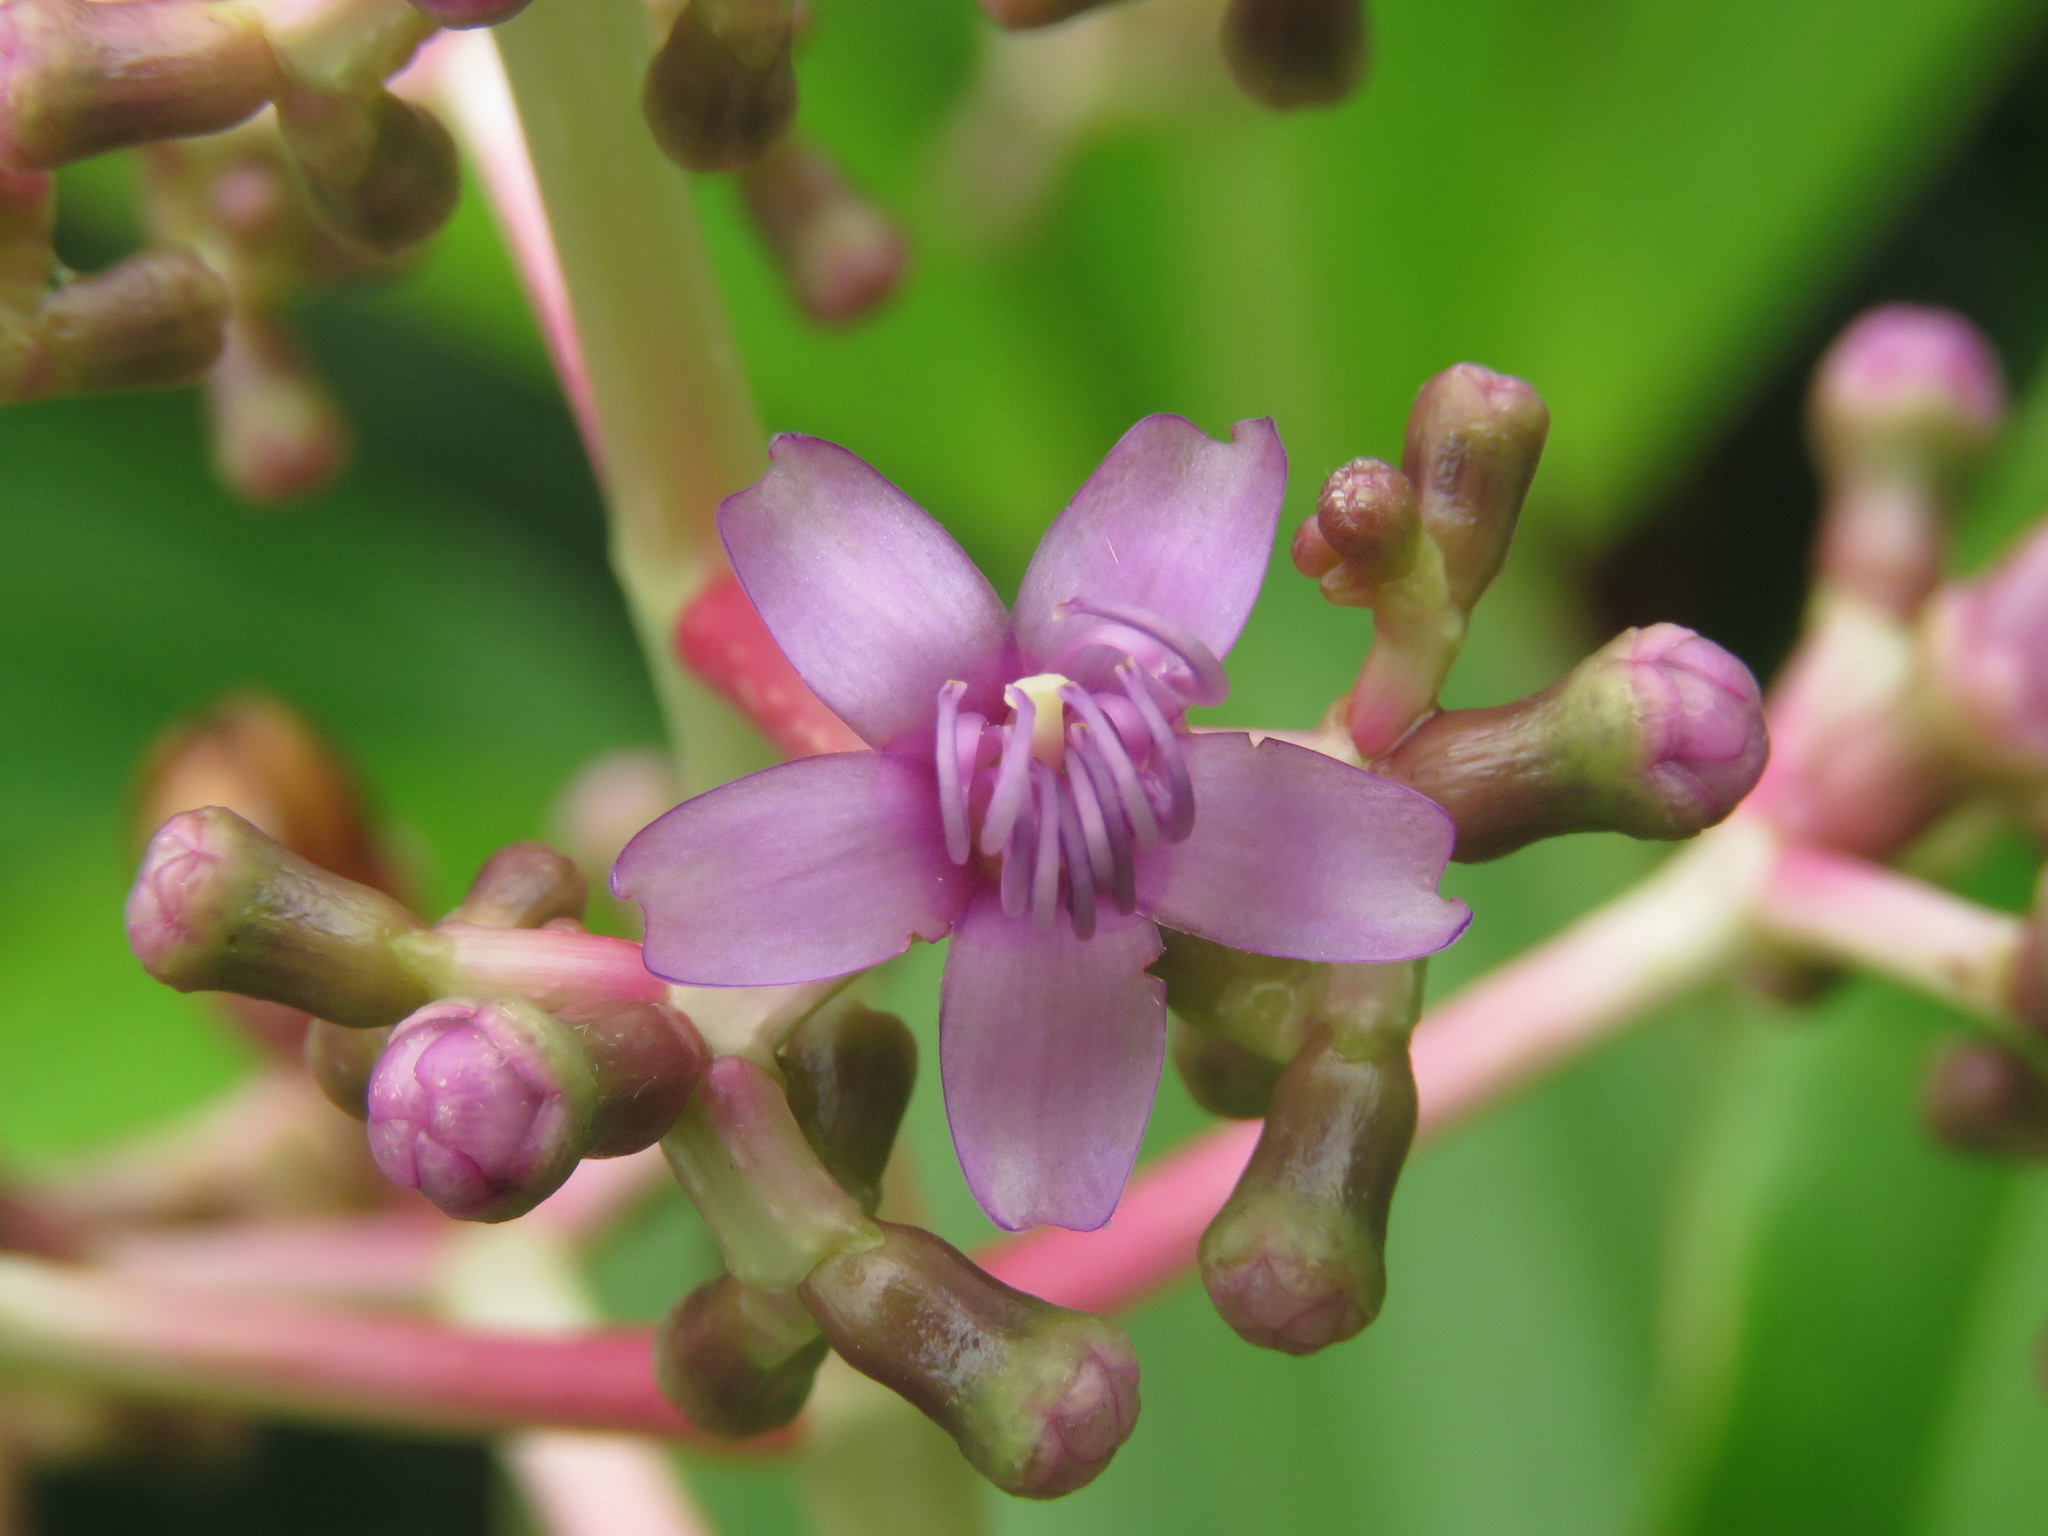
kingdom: Plantae
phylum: Tracheophyta
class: Magnoliopsida
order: Myrtales
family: Melastomataceae
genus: Miconia
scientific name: Miconia robinsoniana
